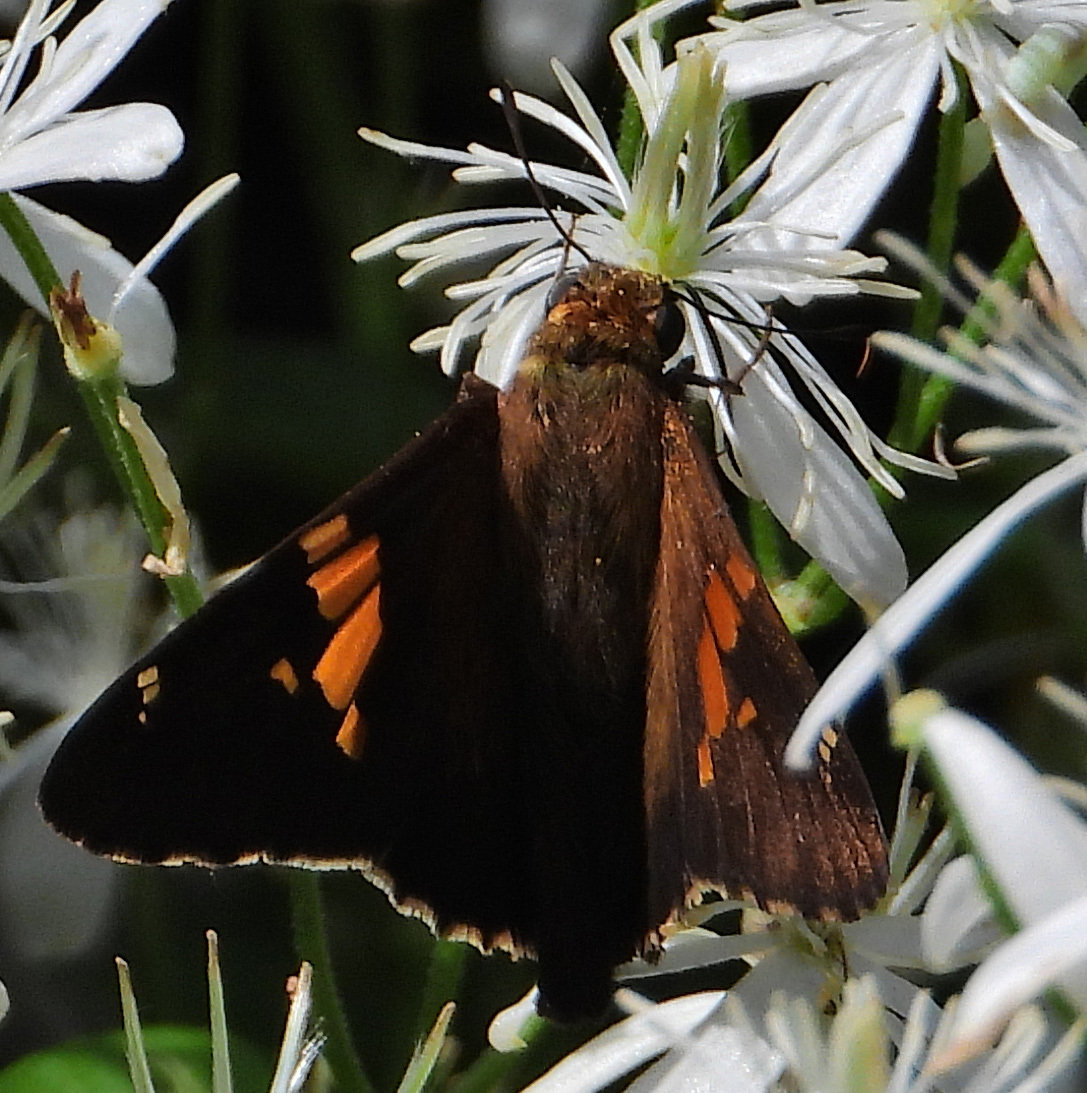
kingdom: Animalia
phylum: Arthropoda
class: Insecta
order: Lepidoptera
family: Hesperiidae
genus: Epargyreus
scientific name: Epargyreus clarus
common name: Silver-spotted skipper
